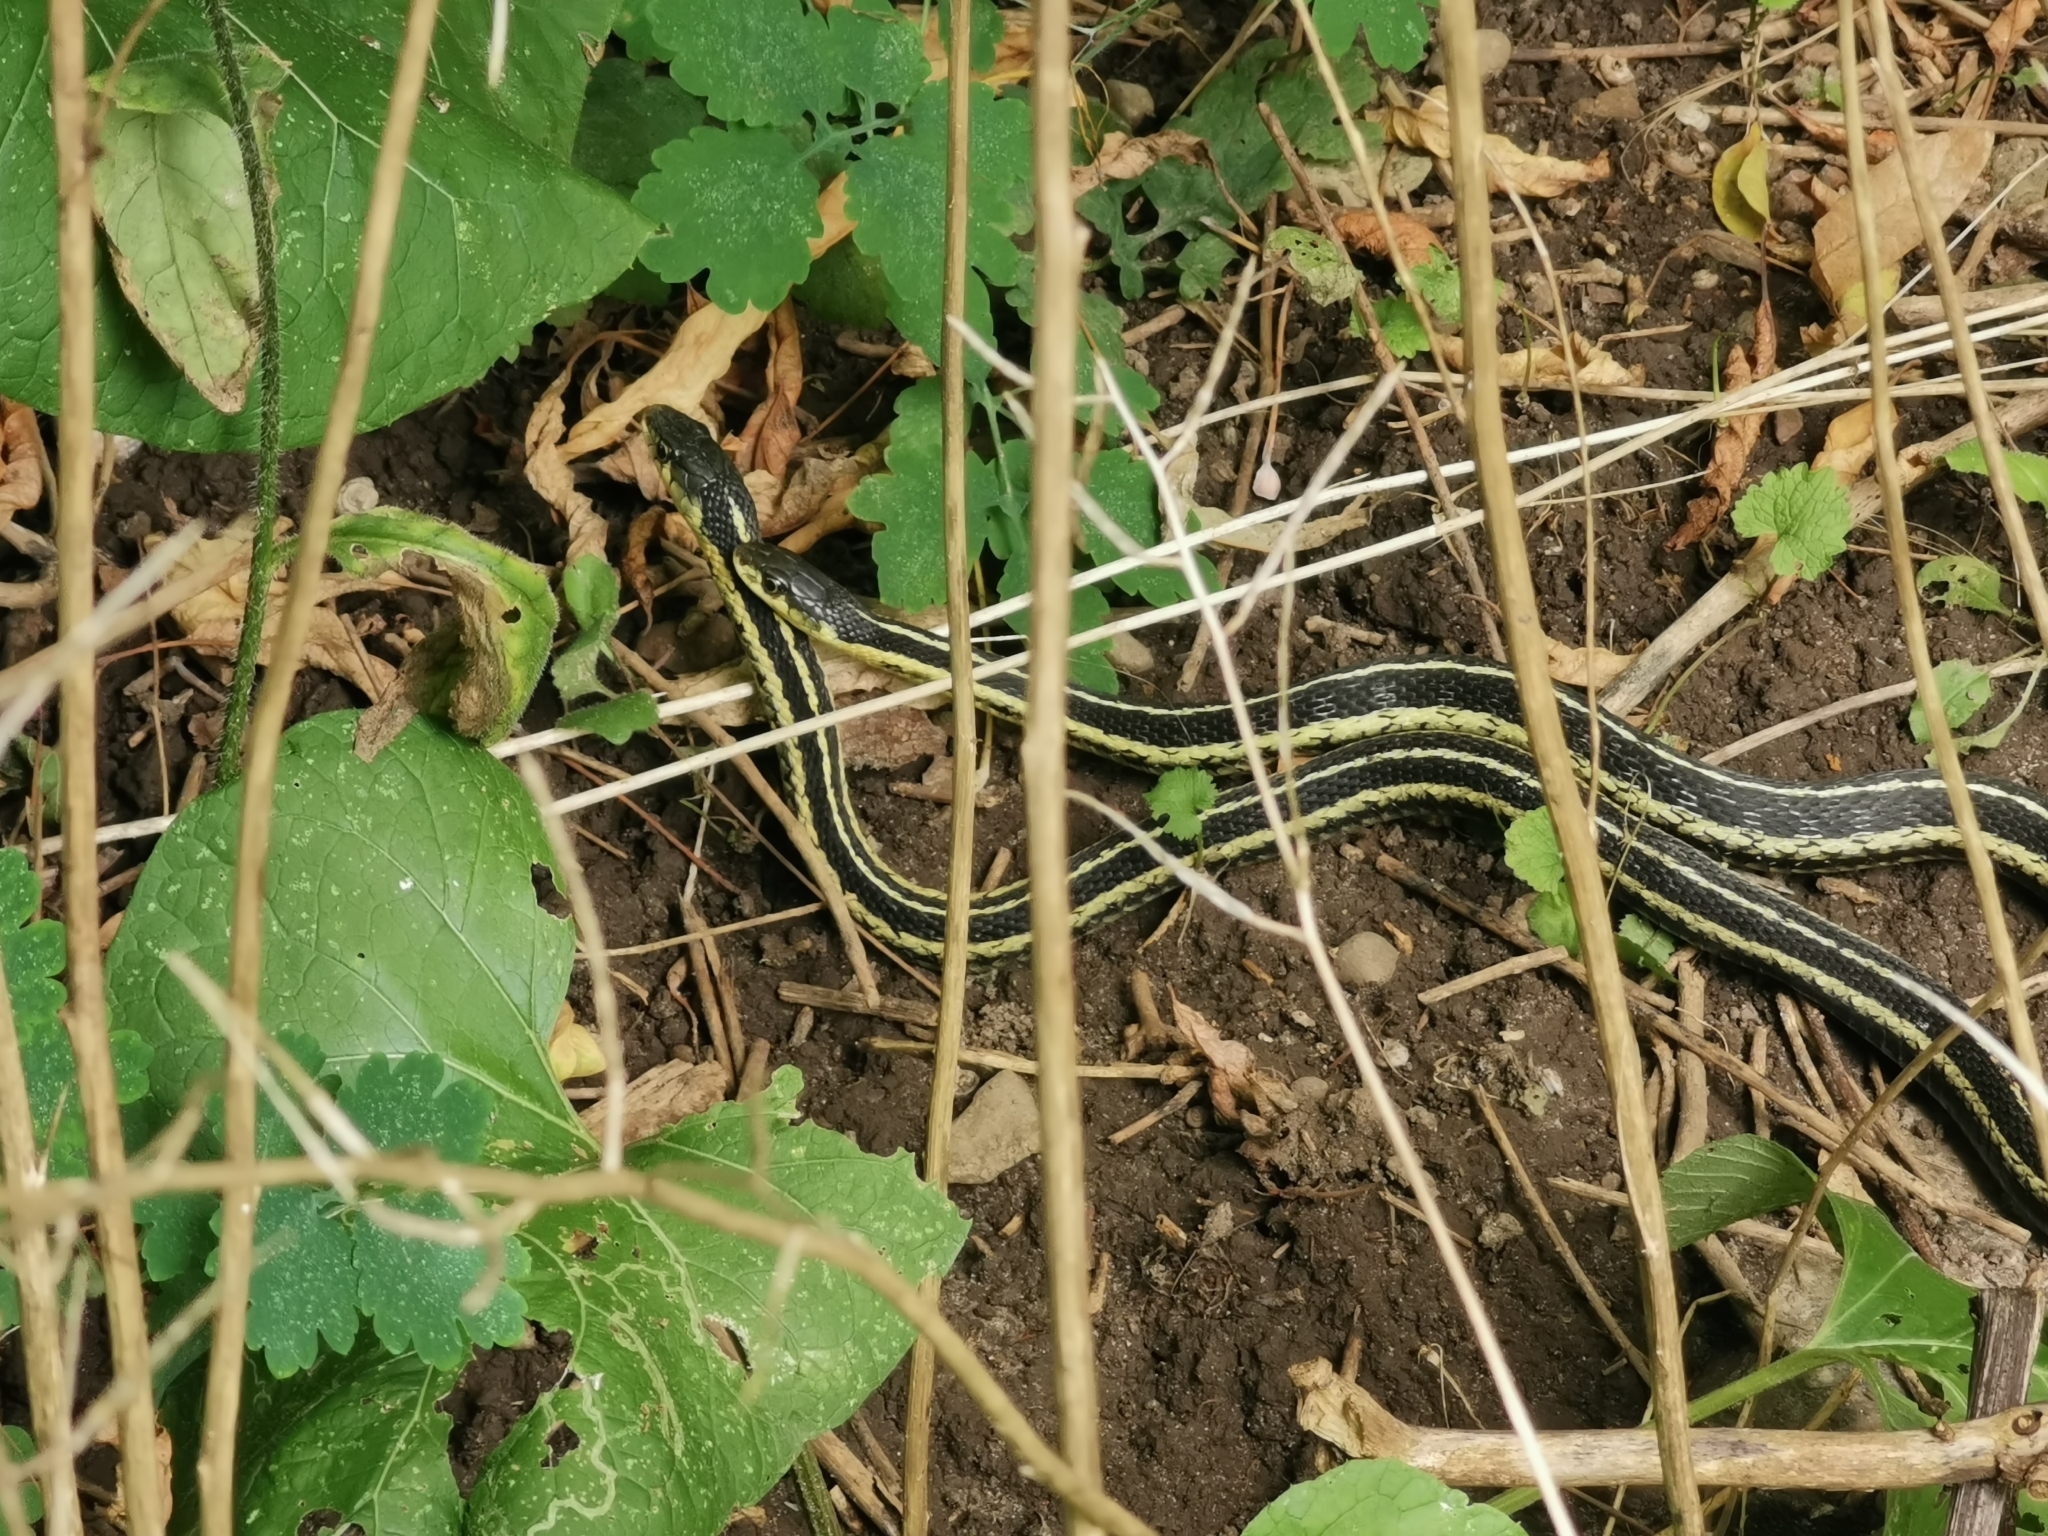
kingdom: Animalia
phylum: Chordata
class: Squamata
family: Colubridae
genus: Thamnophis
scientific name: Thamnophis sirtalis
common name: Common garter snake
